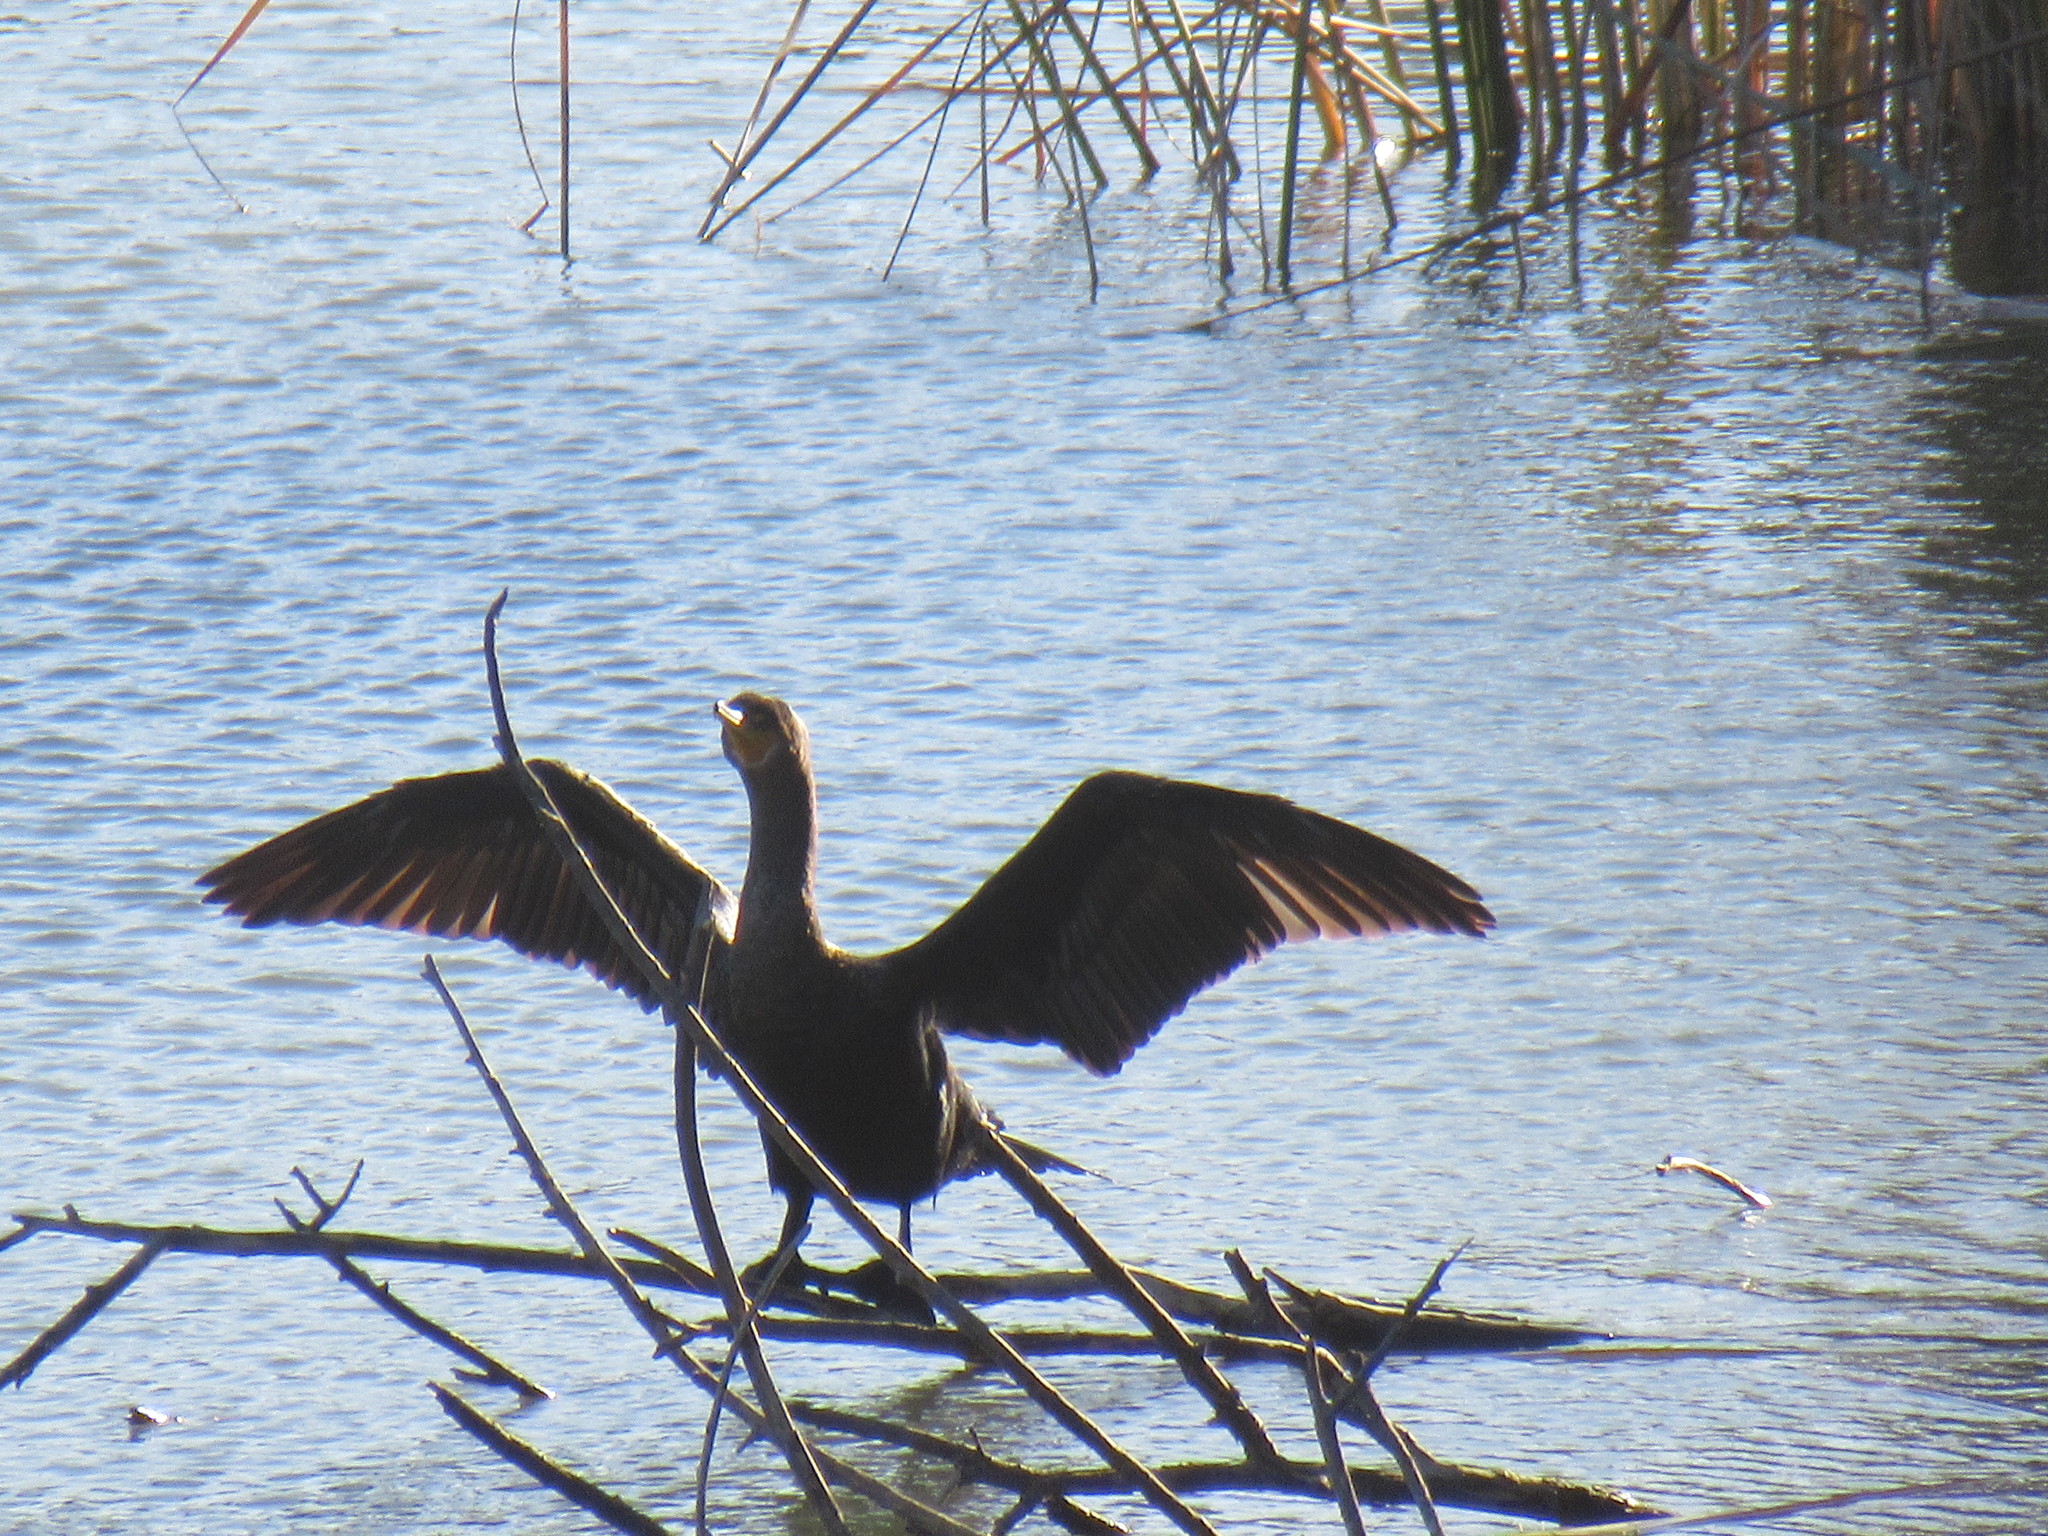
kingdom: Animalia
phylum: Chordata
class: Aves
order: Suliformes
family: Phalacrocoracidae
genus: Phalacrocorax
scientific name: Phalacrocorax auritus
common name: Double-crested cormorant
